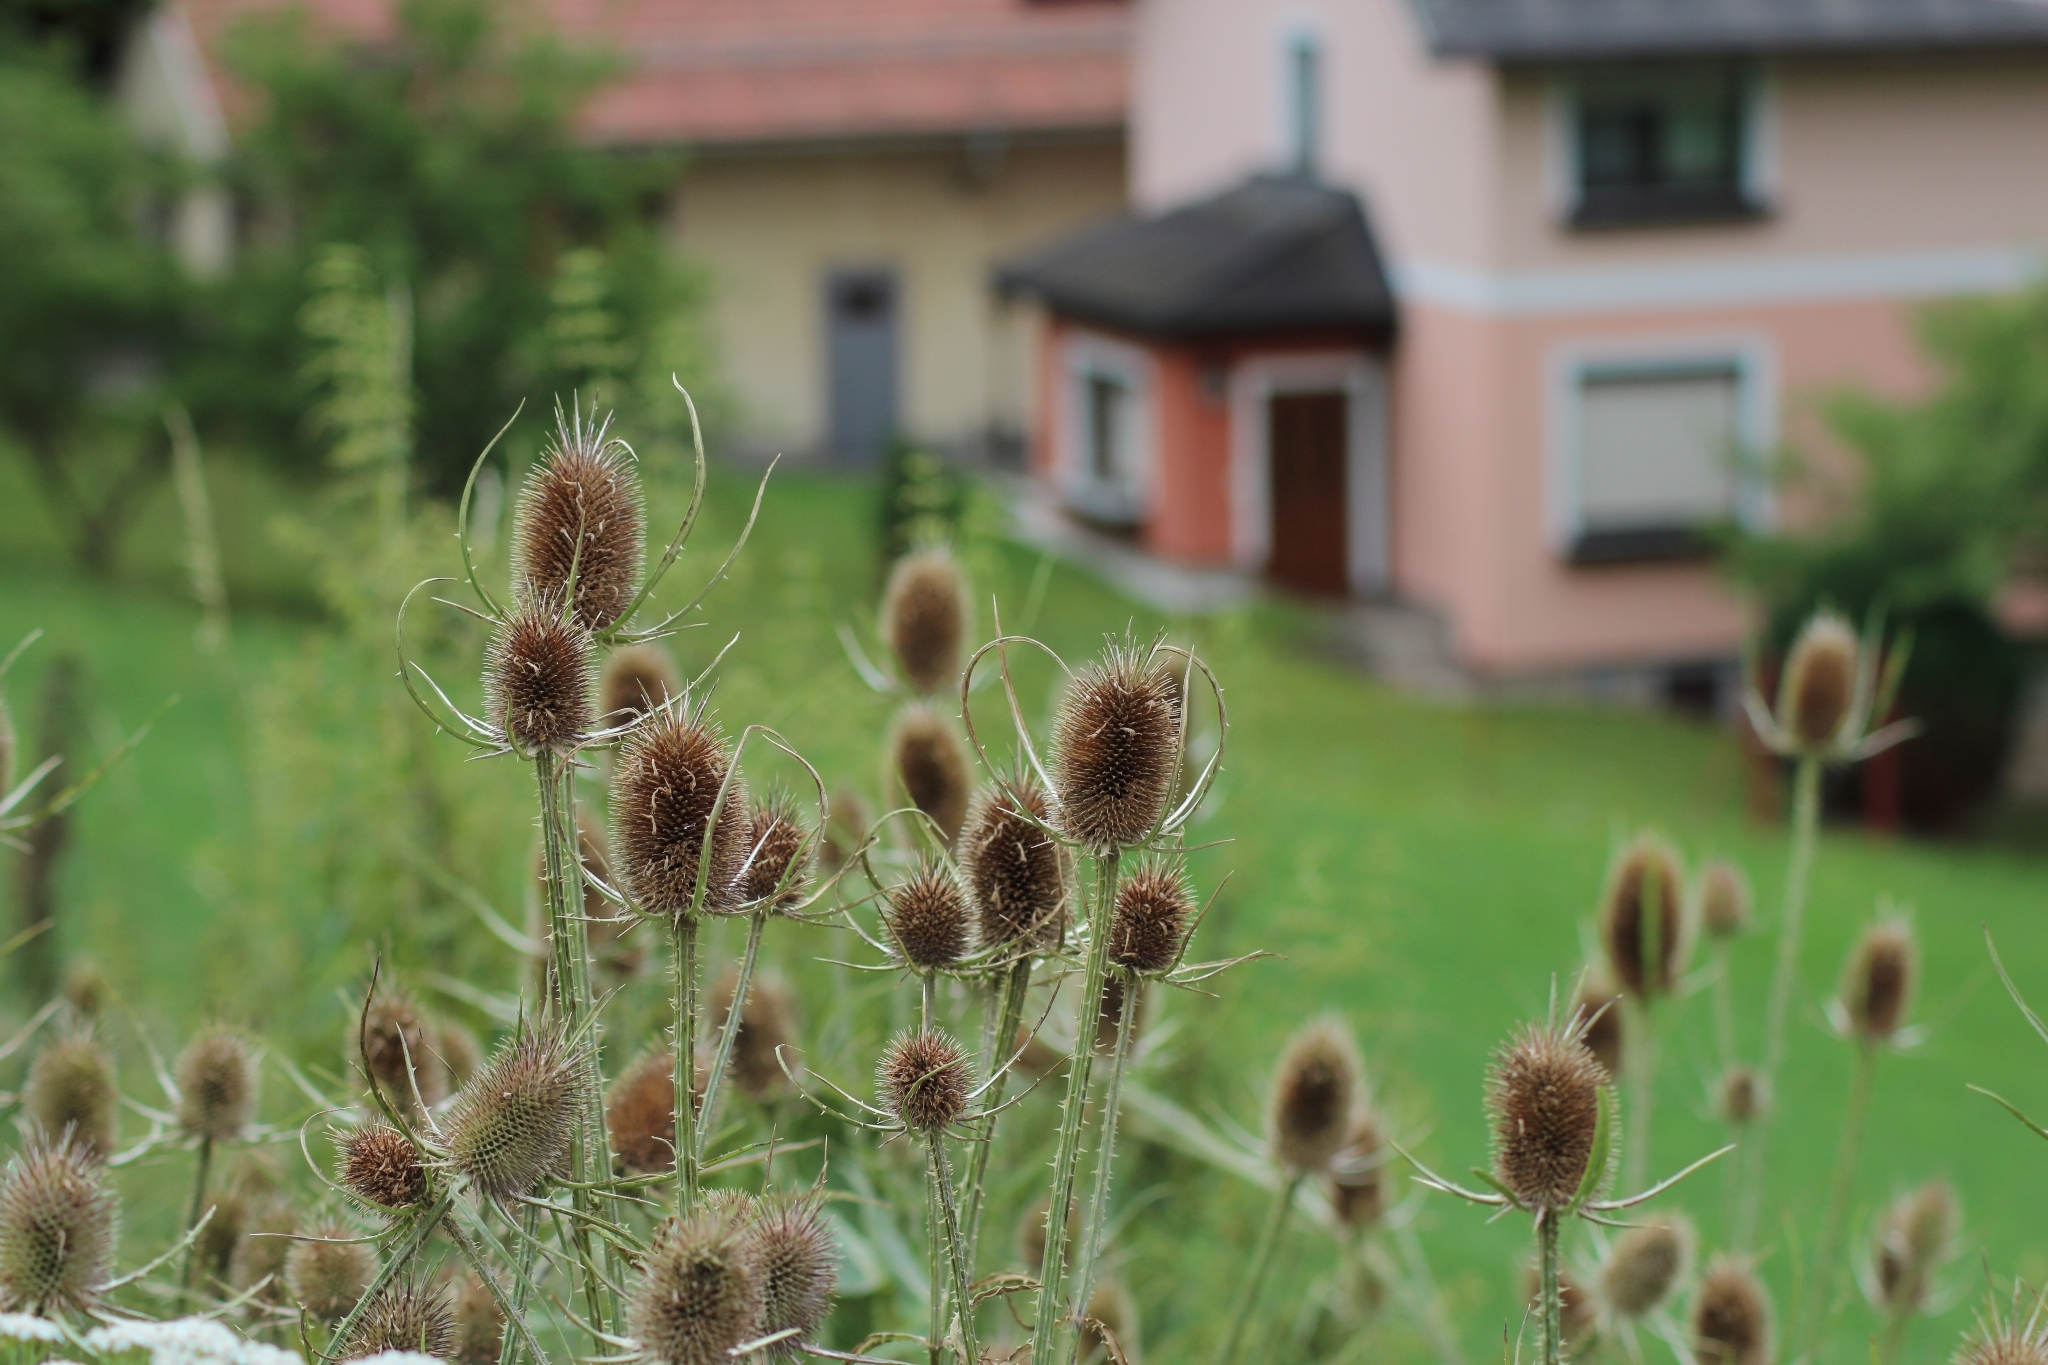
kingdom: Plantae
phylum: Tracheophyta
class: Magnoliopsida
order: Dipsacales
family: Caprifoliaceae
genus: Dipsacus
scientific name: Dipsacus fullonum
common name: Teasel
